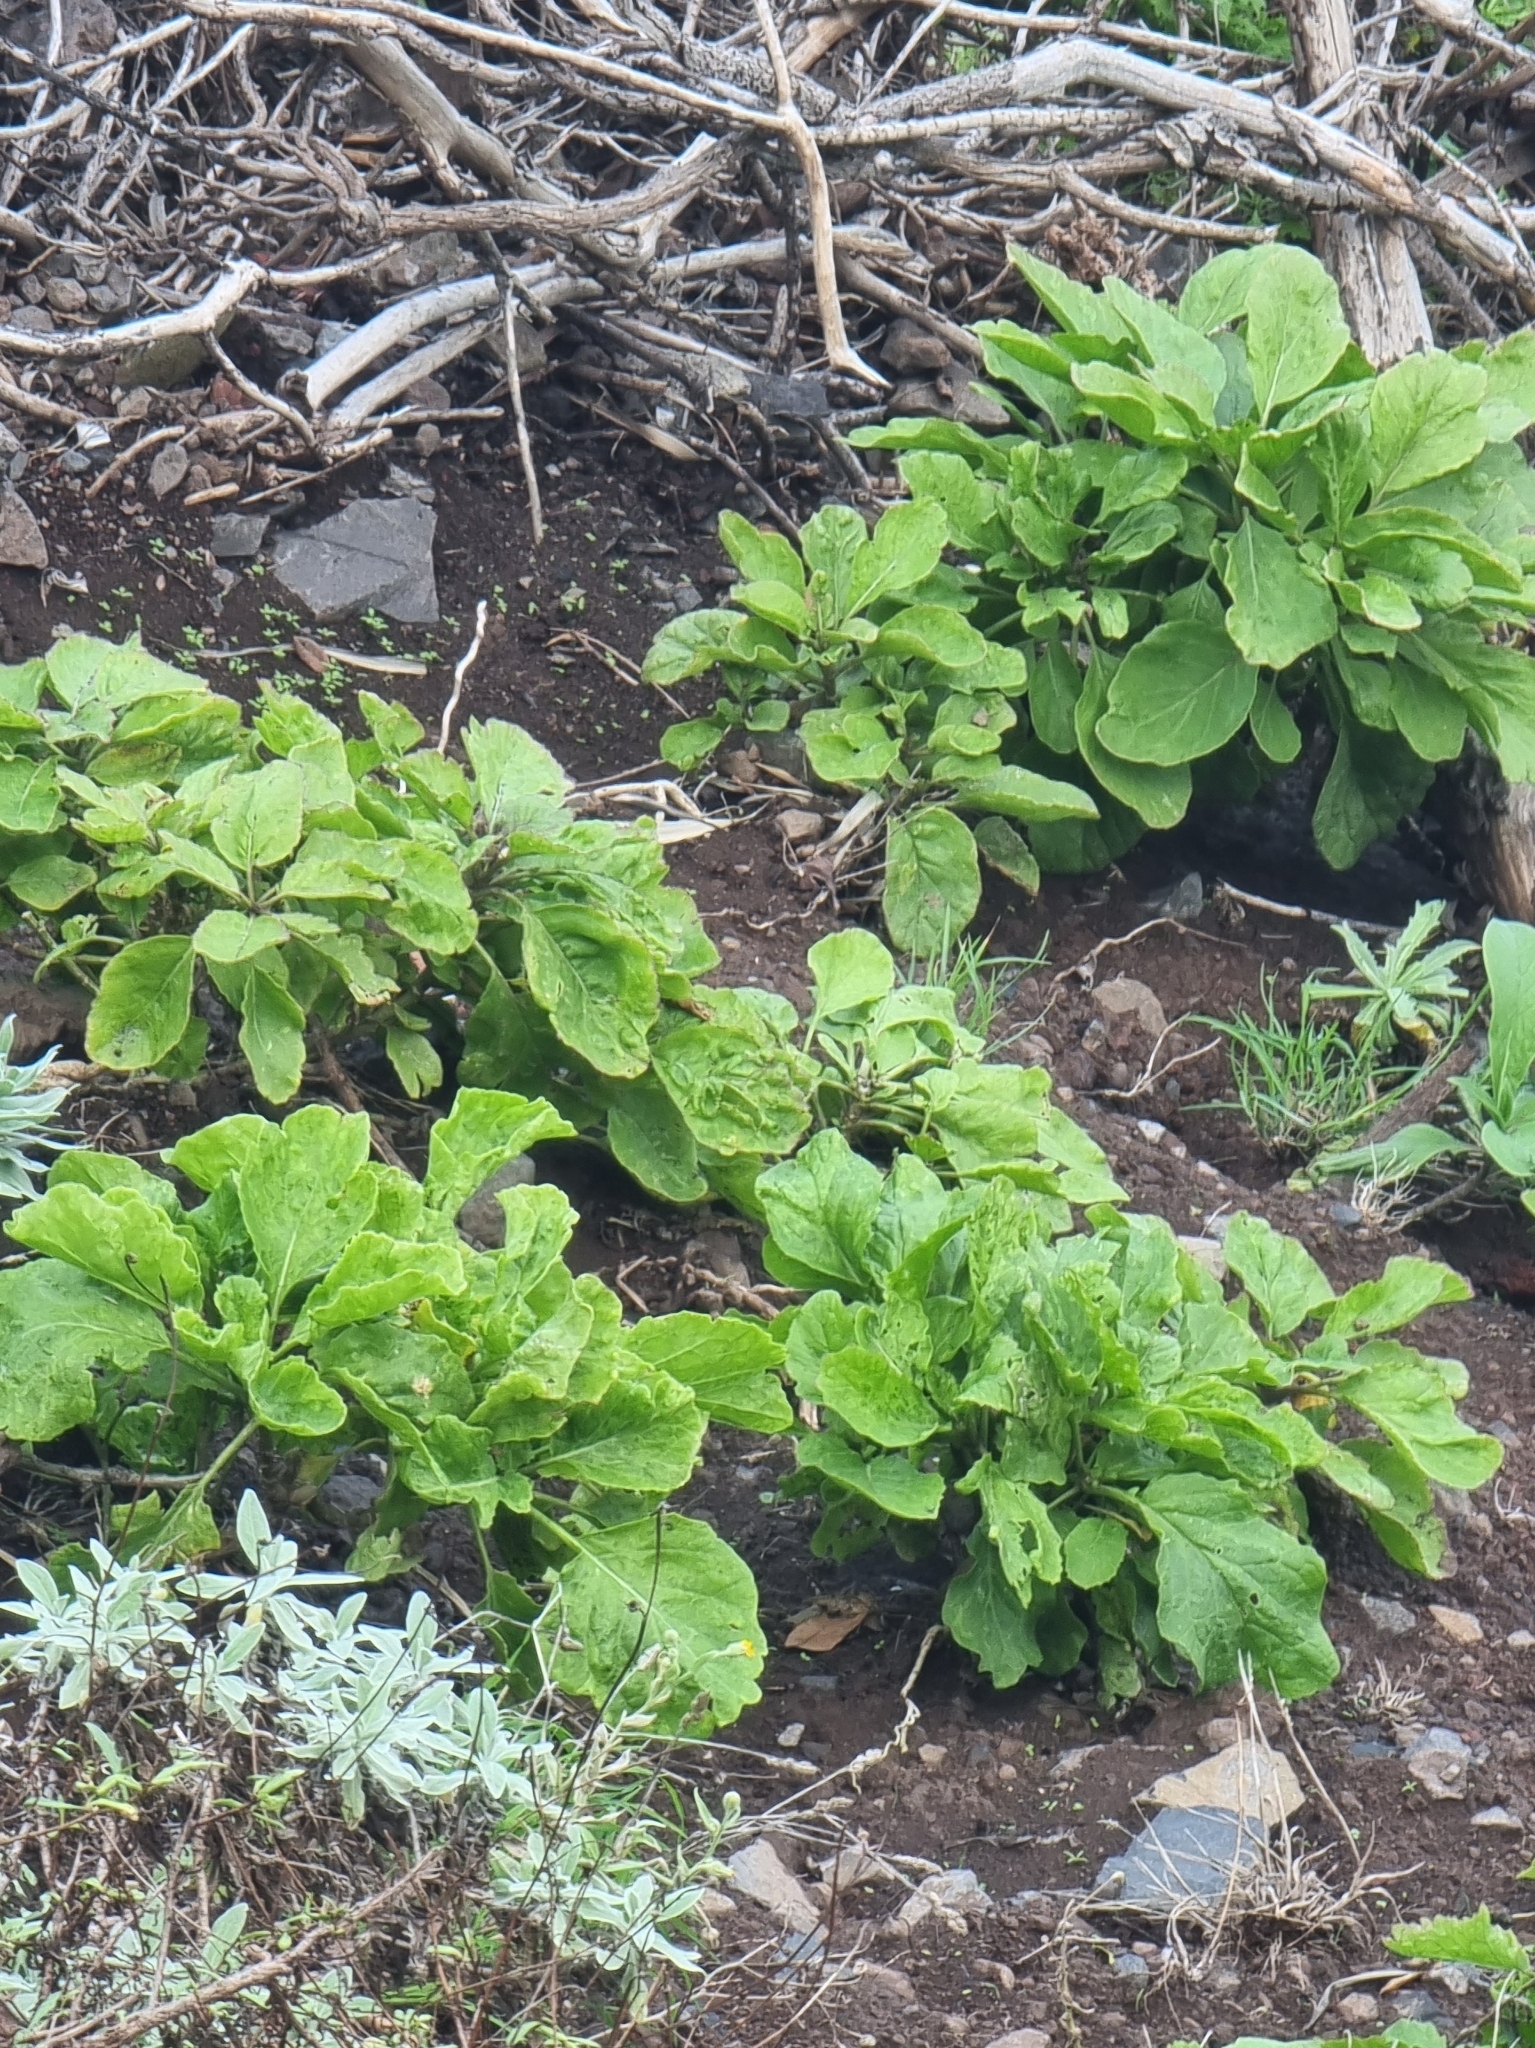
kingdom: Plantae
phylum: Tracheophyta
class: Magnoliopsida
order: Brassicales
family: Brassicaceae
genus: Sinapidendron
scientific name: Sinapidendron rupestre
